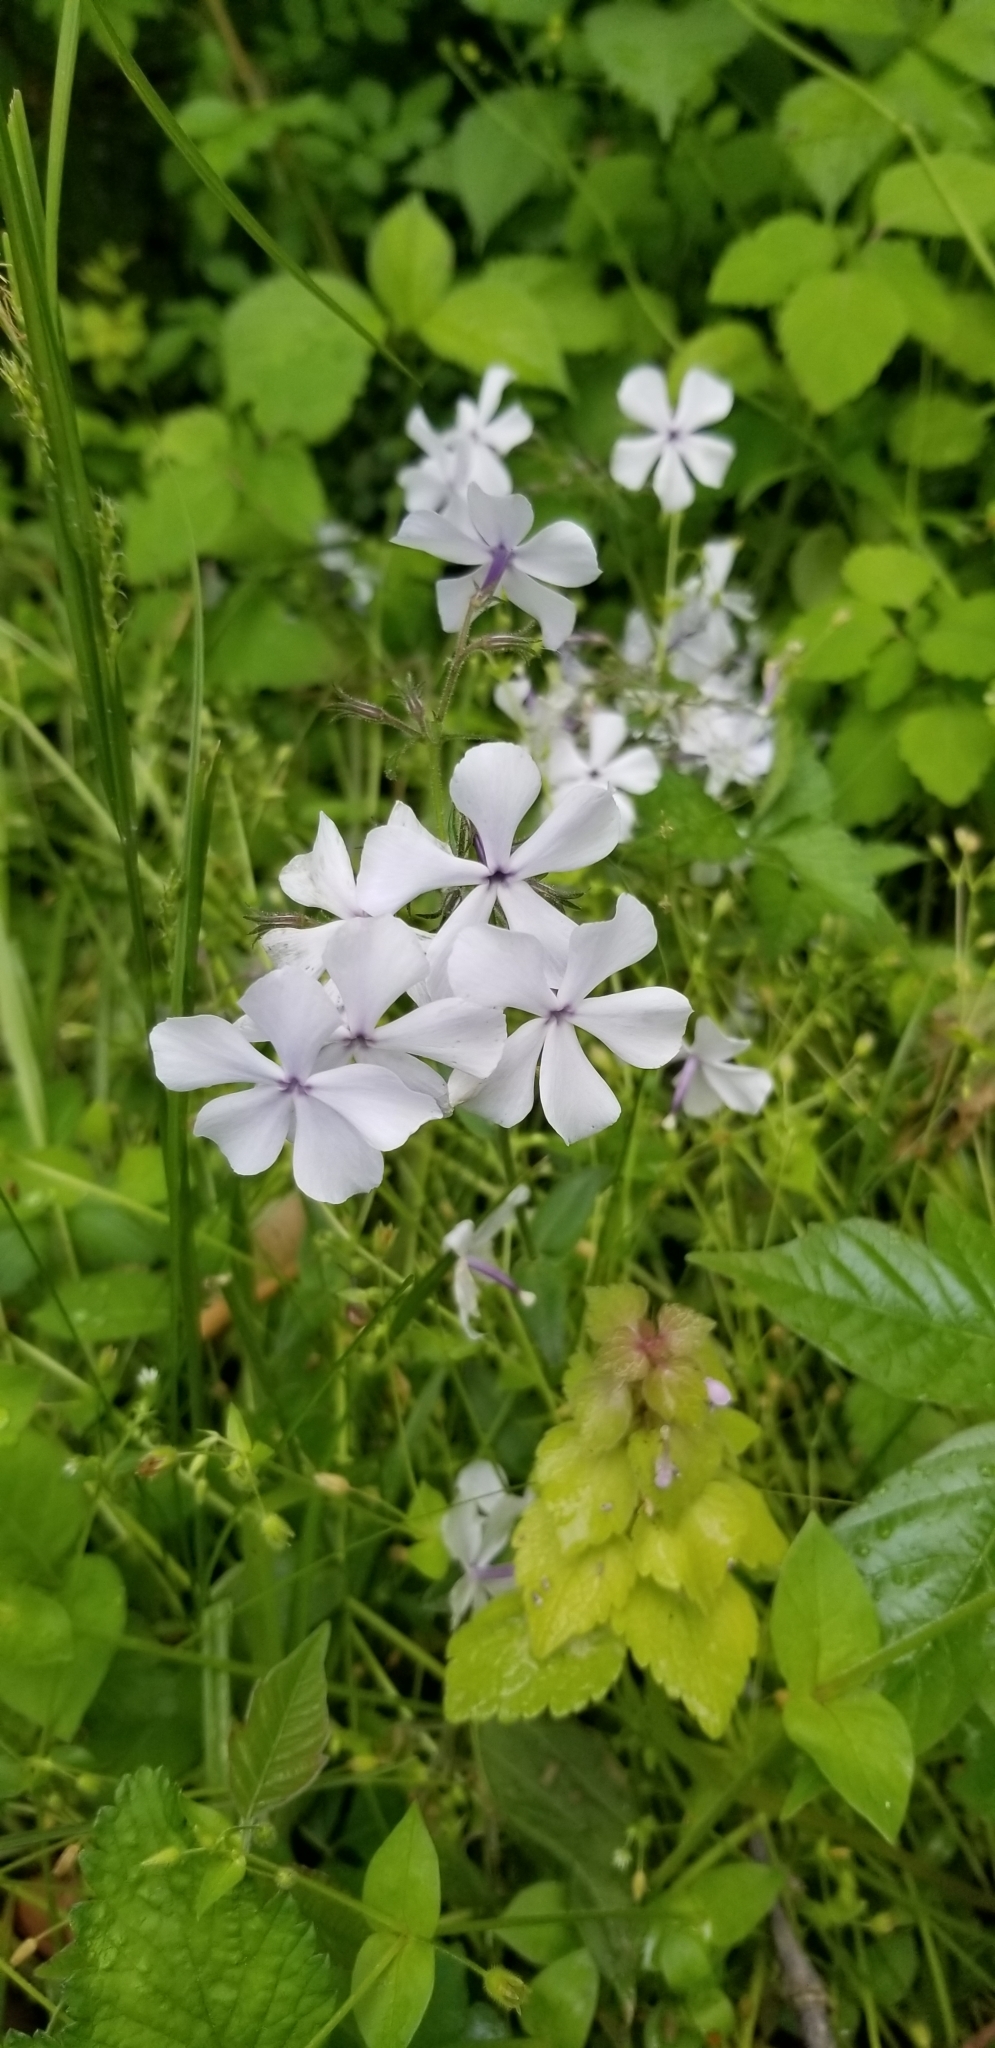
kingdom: Plantae
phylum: Tracheophyta
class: Magnoliopsida
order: Ericales
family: Polemoniaceae
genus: Phlox
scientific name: Phlox divaricata
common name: Blue phlox
